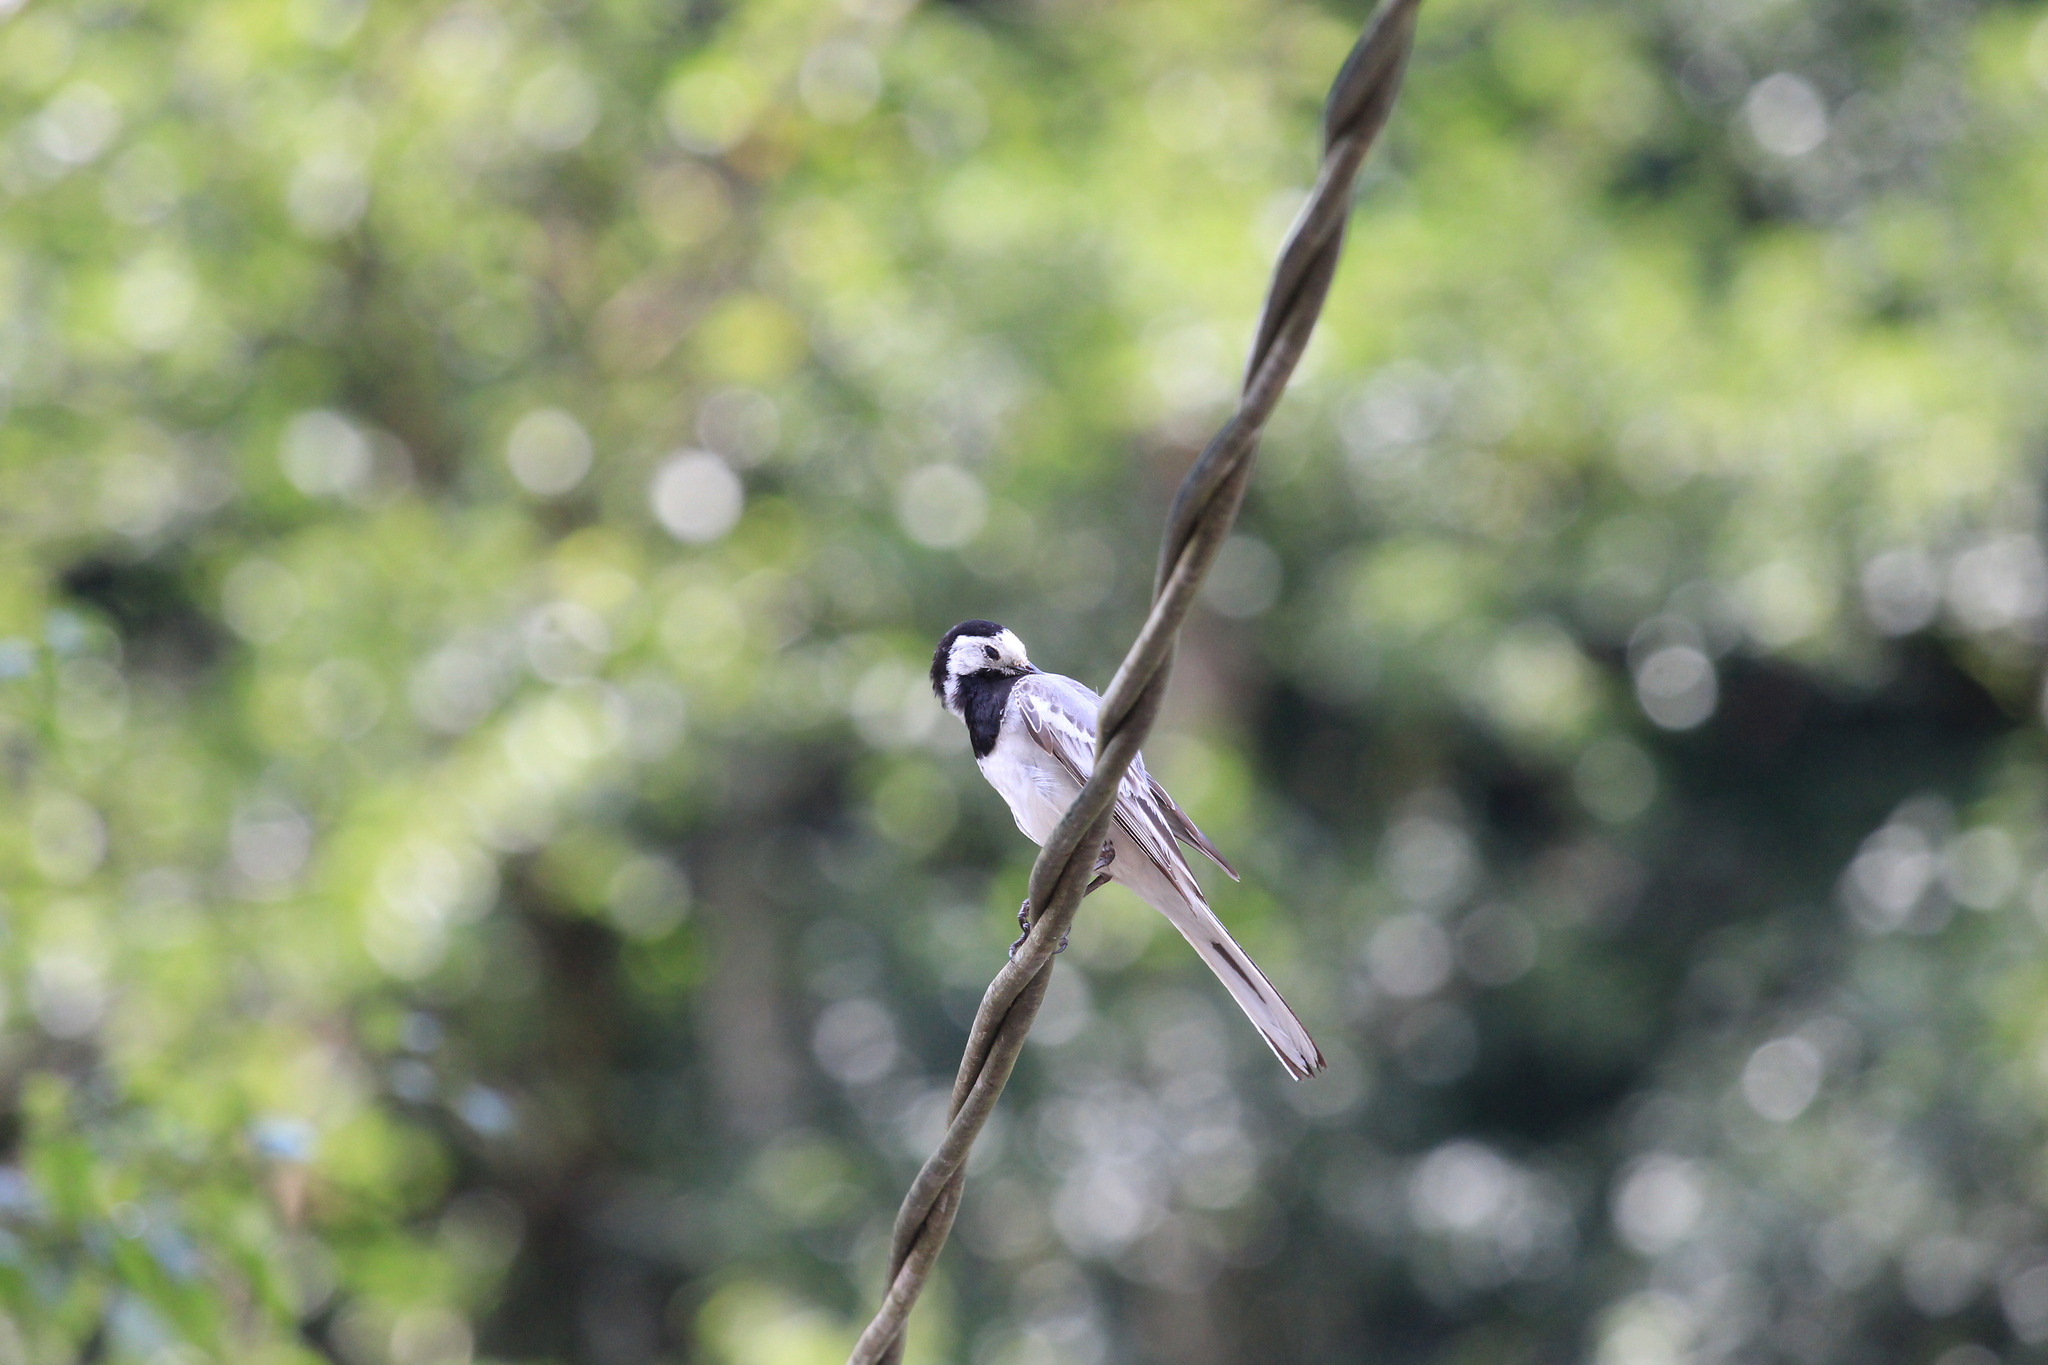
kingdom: Animalia
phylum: Chordata
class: Aves
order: Passeriformes
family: Motacillidae
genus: Motacilla
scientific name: Motacilla alba
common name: White wagtail
